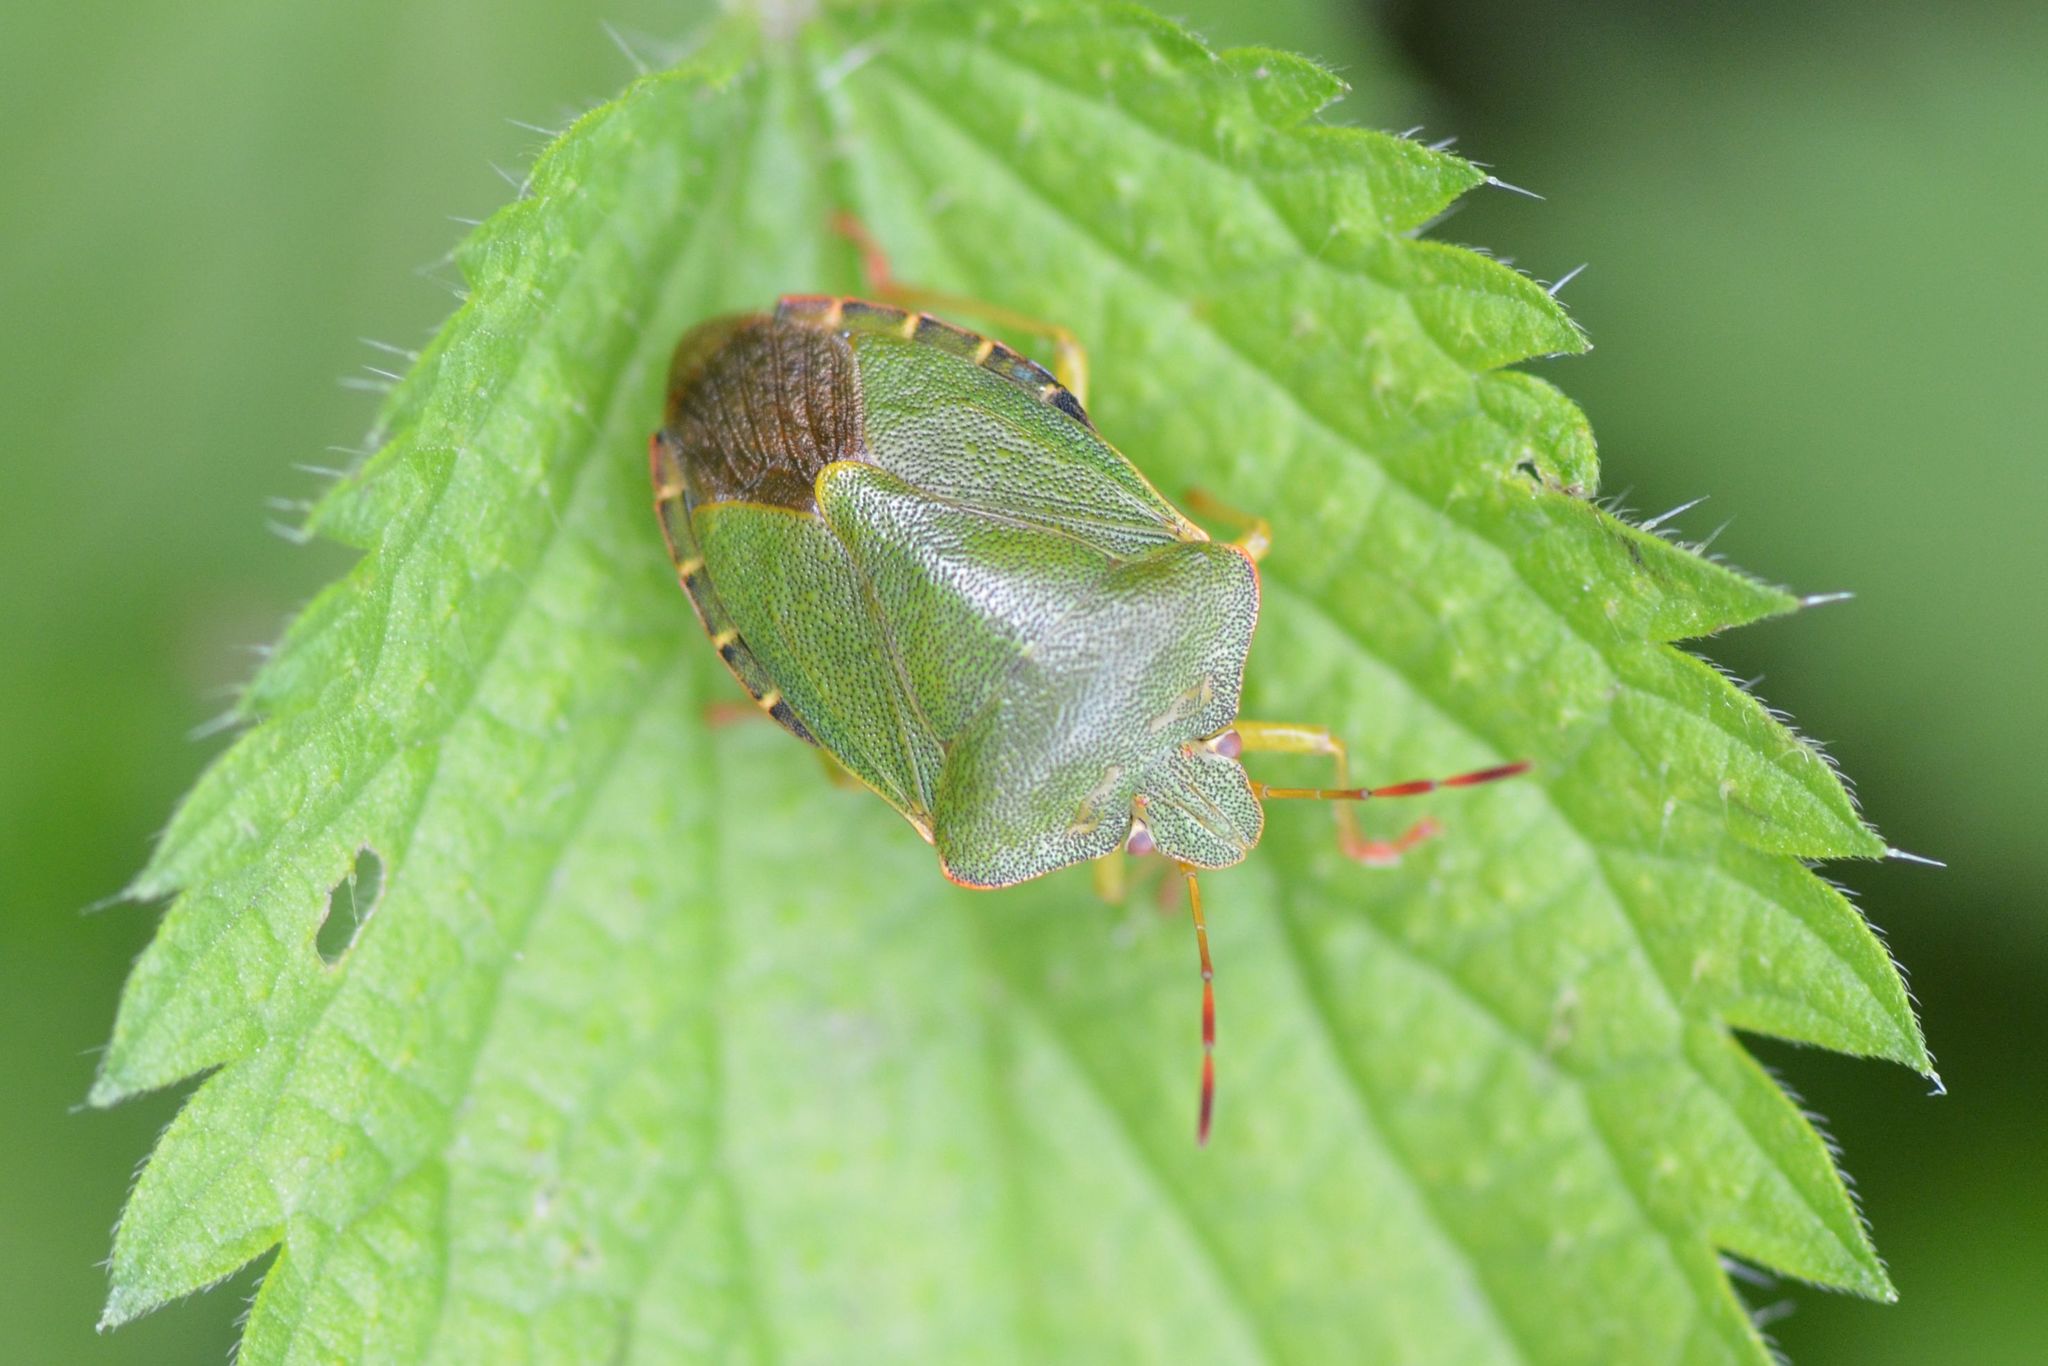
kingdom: Animalia
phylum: Arthropoda
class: Insecta
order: Hemiptera
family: Pentatomidae
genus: Palomena
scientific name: Palomena prasina
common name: Green shieldbug
